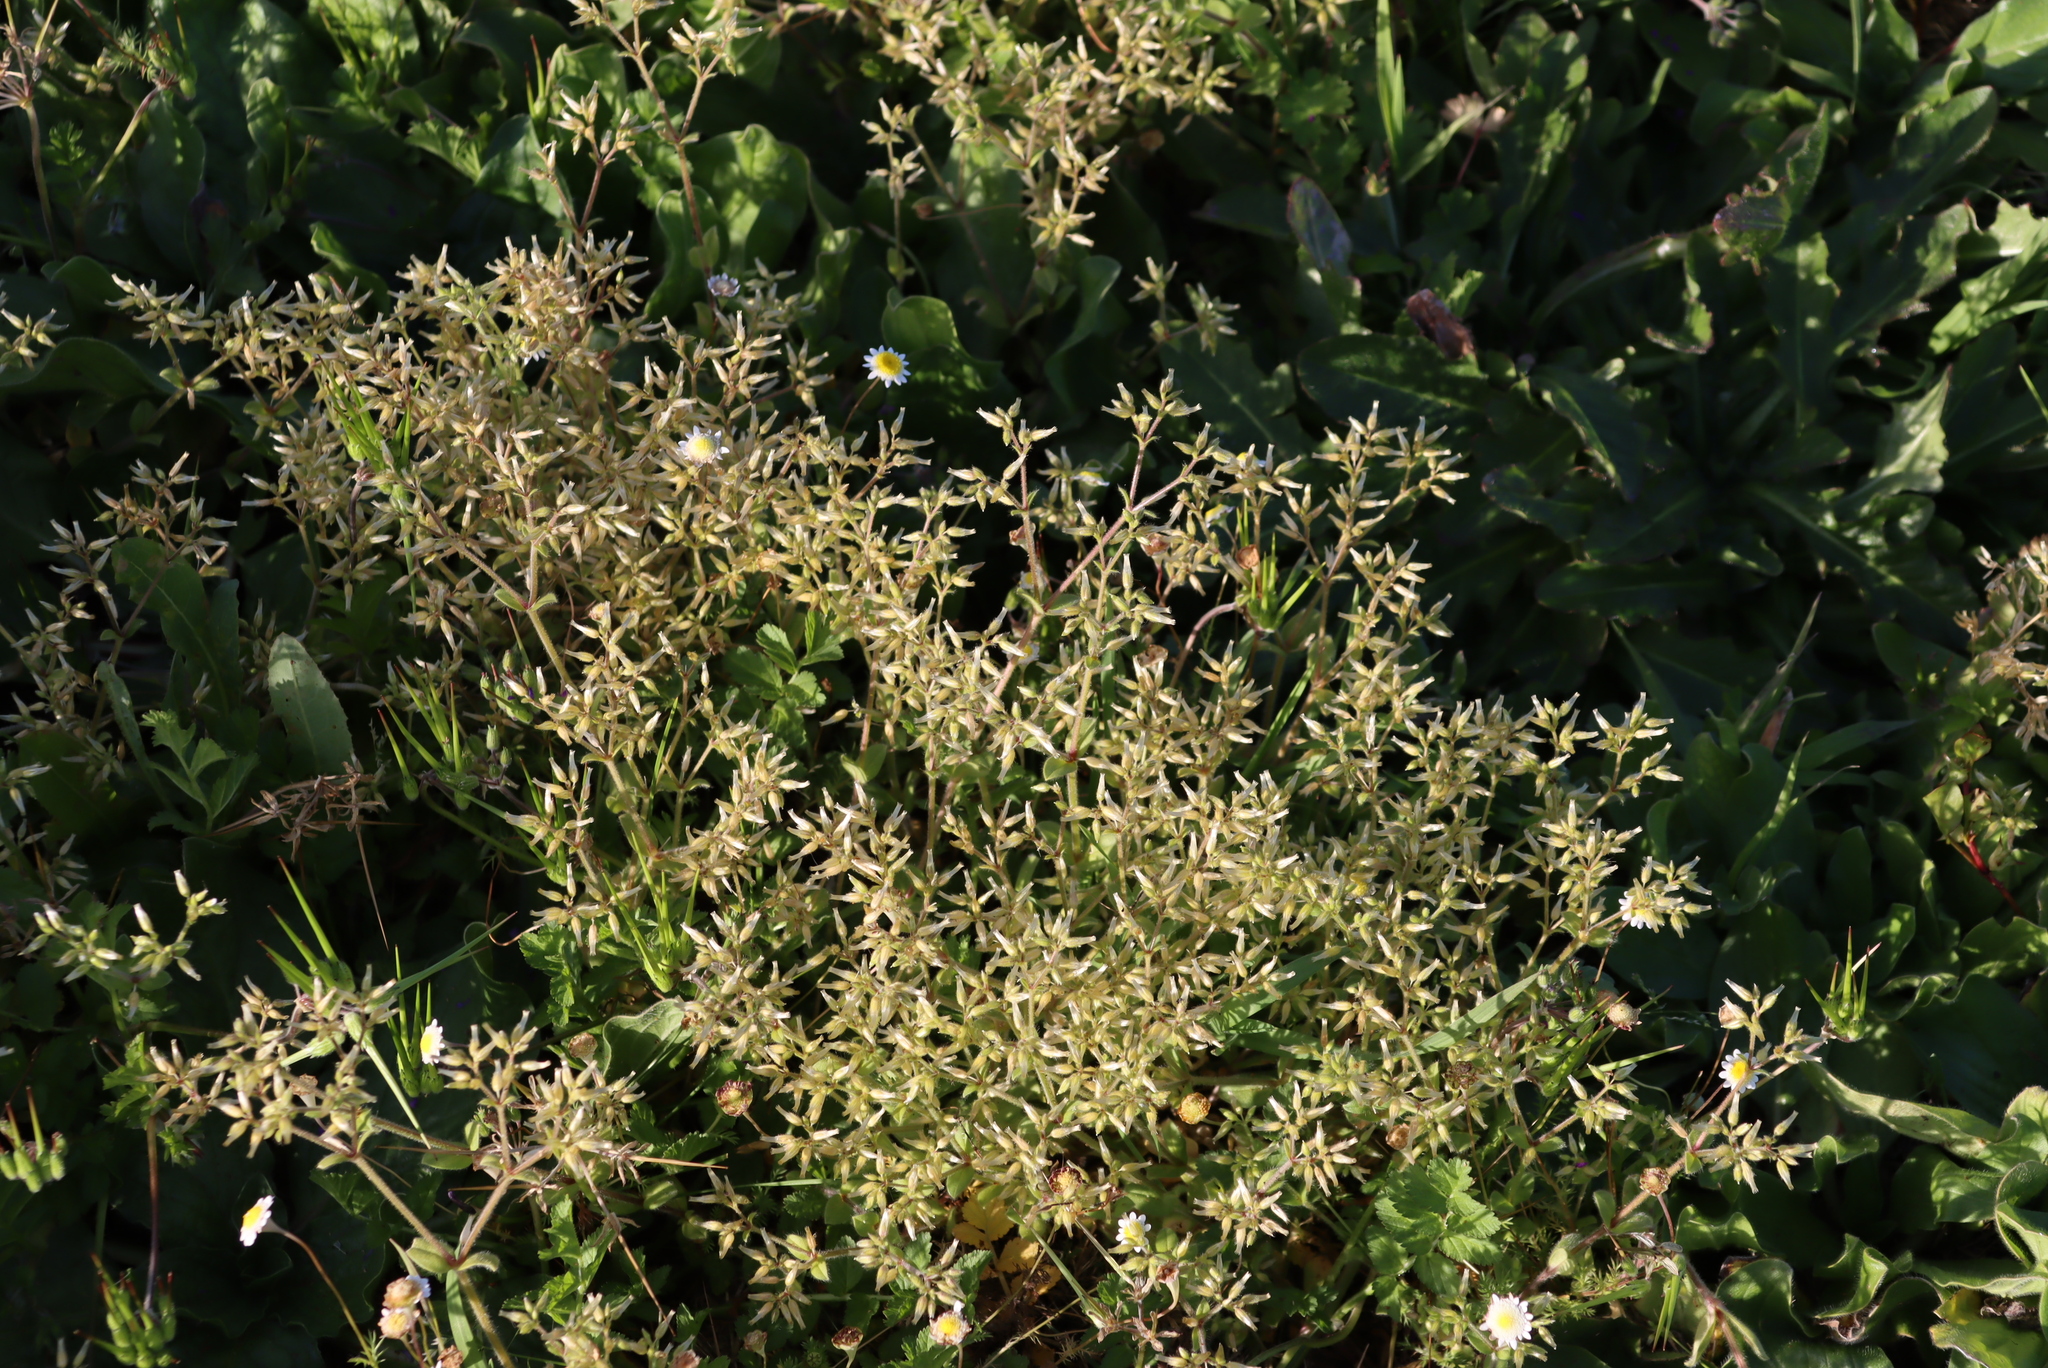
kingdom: Plantae
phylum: Tracheophyta
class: Magnoliopsida
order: Caryophyllales
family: Caryophyllaceae
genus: Cerastium
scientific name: Cerastium glomeratum
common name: Sticky chickweed
